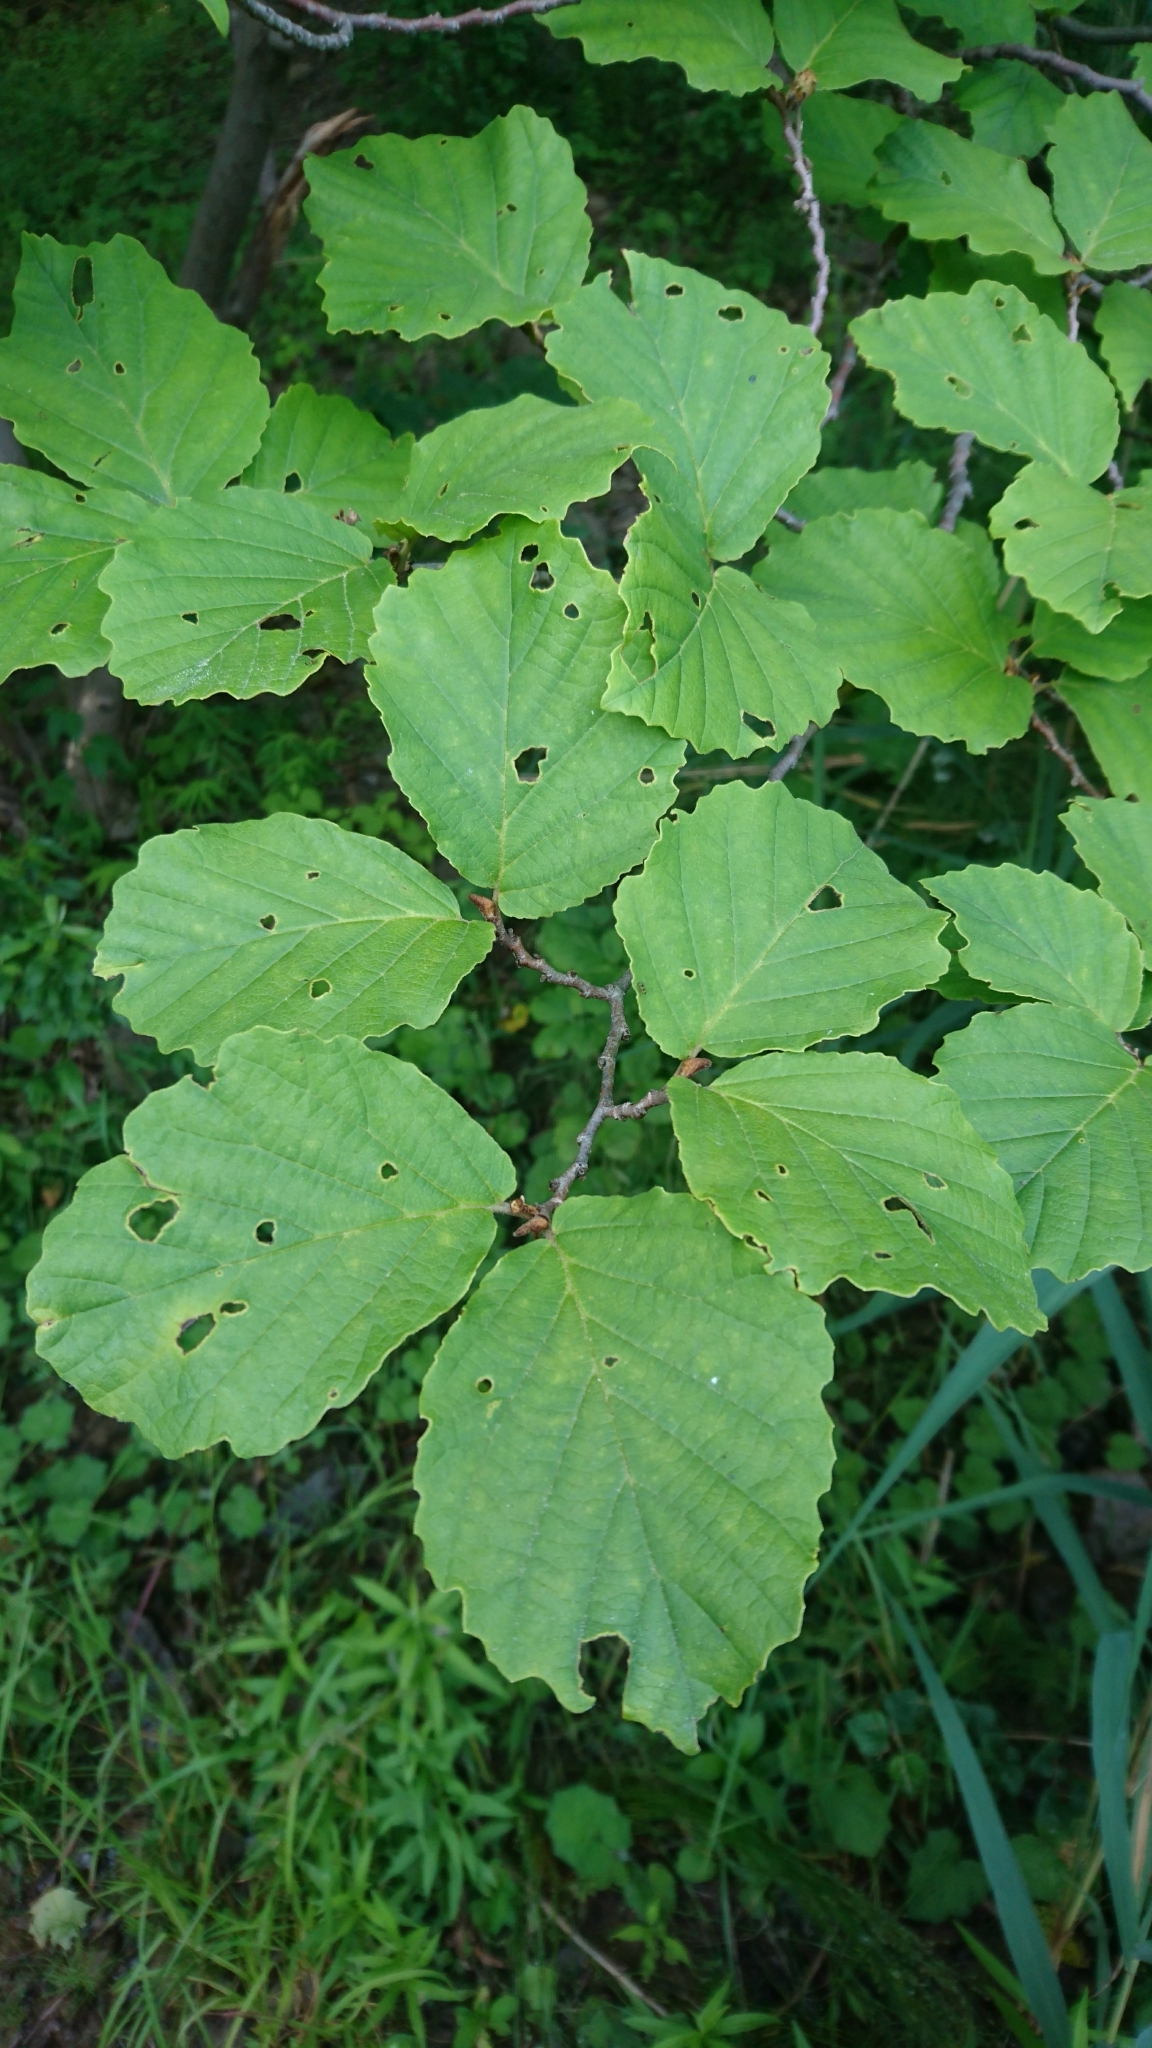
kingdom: Plantae
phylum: Tracheophyta
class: Magnoliopsida
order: Saxifragales
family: Hamamelidaceae
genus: Hamamelis
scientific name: Hamamelis virginiana
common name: Witch-hazel
